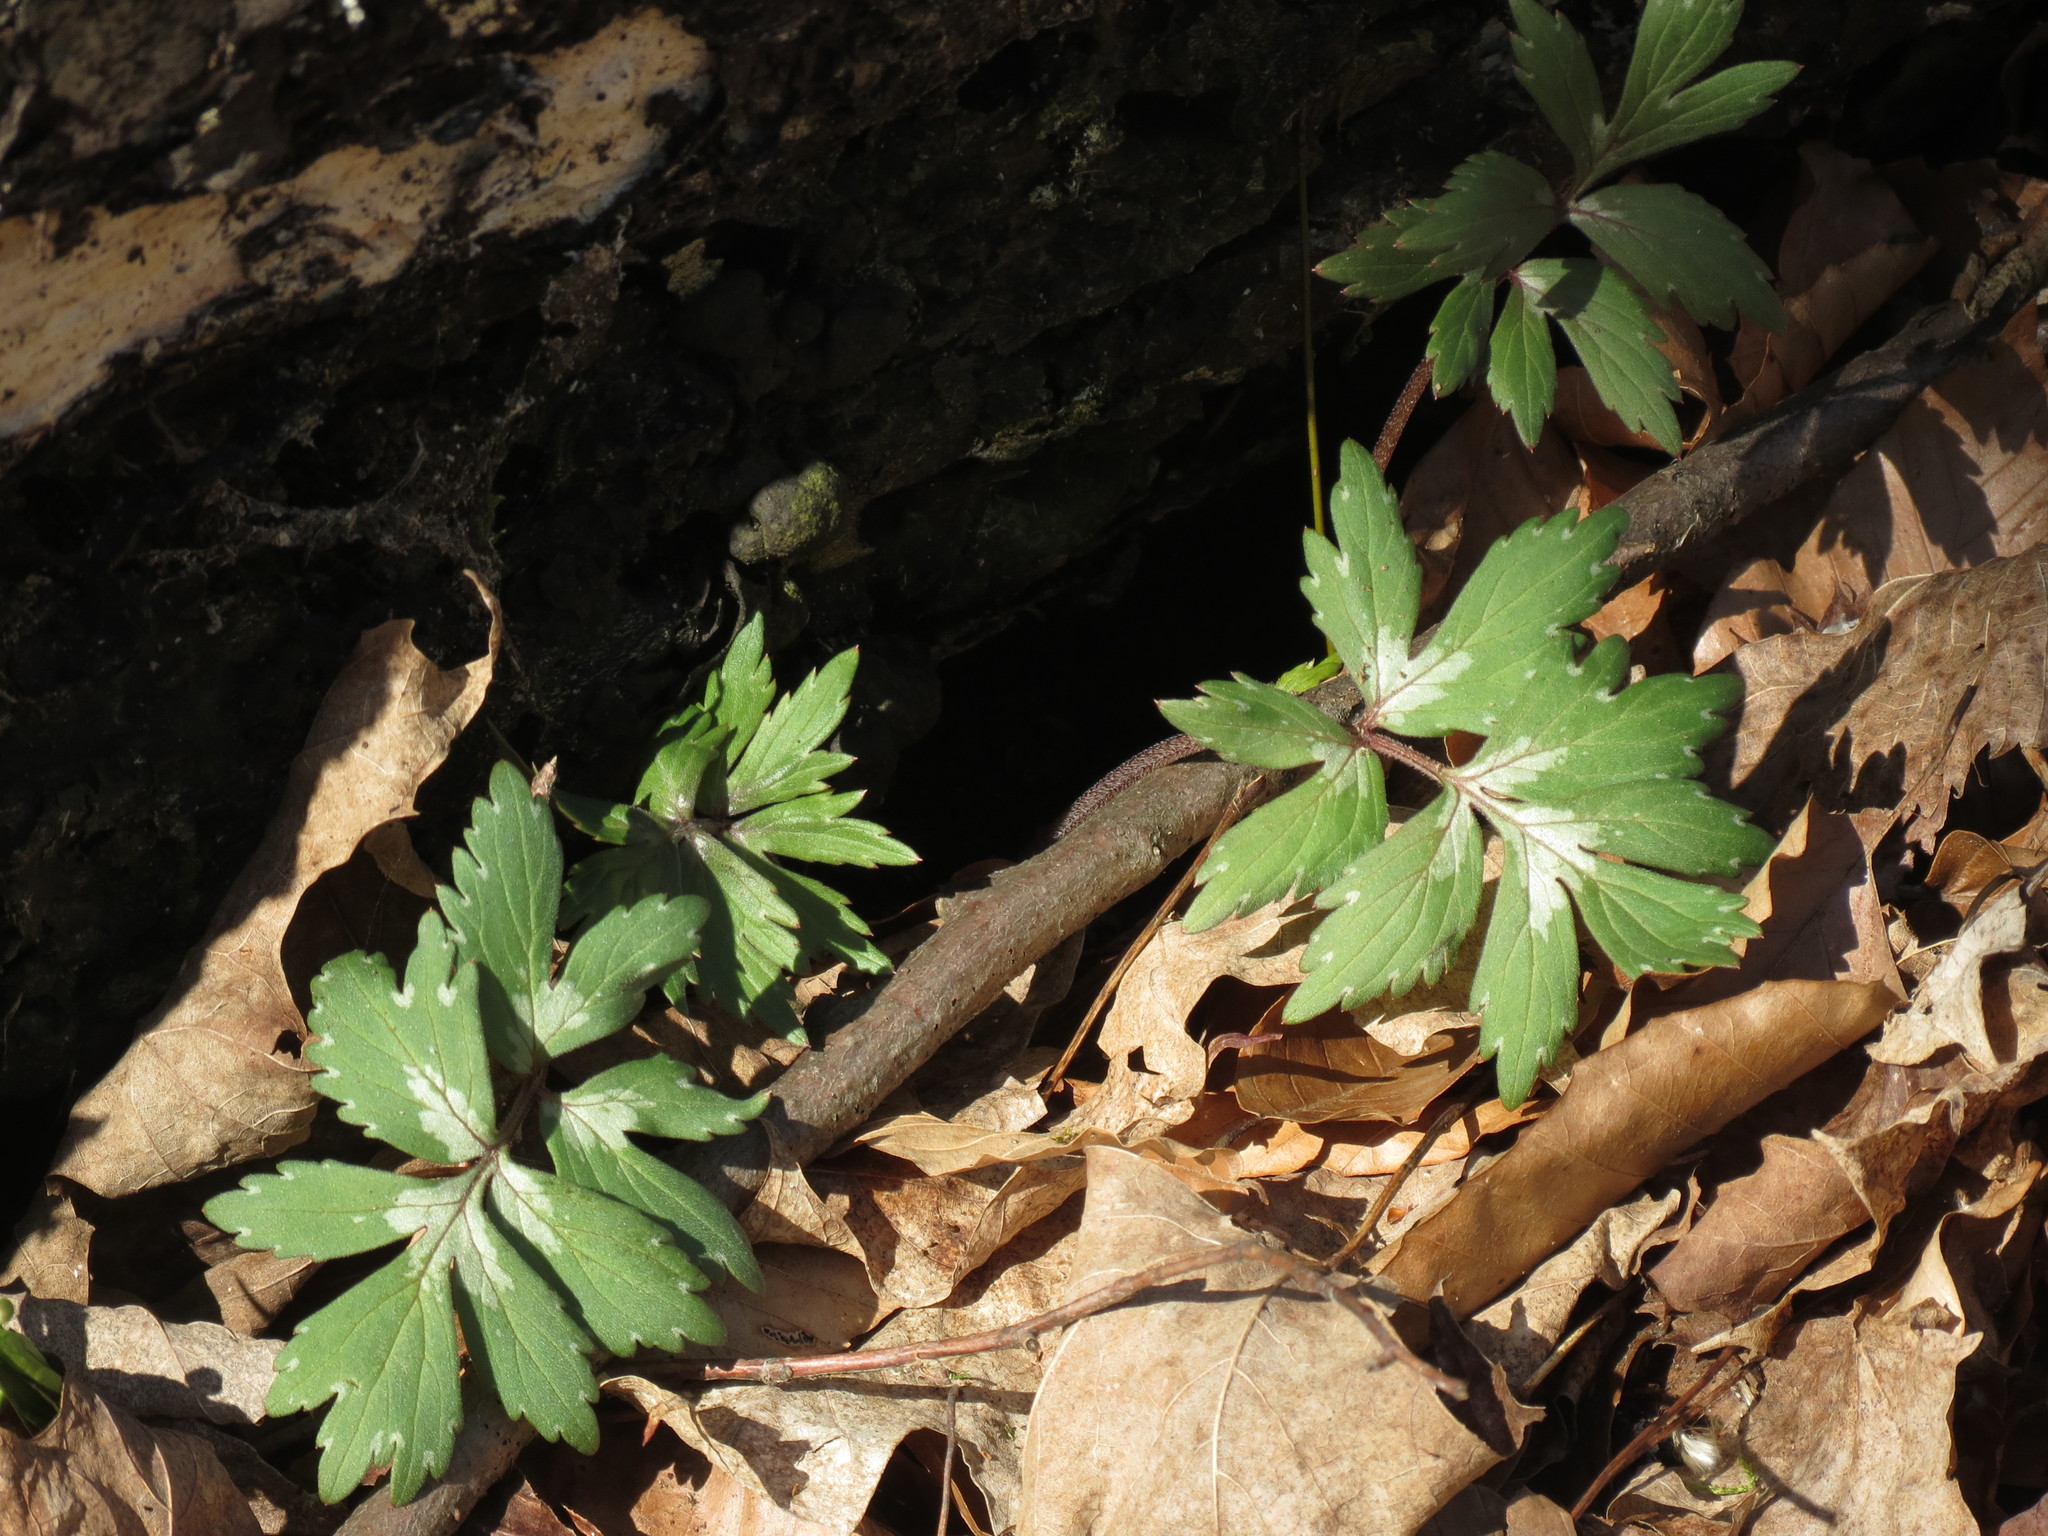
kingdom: Plantae
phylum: Tracheophyta
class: Magnoliopsida
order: Boraginales
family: Hydrophyllaceae
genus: Hydrophyllum
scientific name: Hydrophyllum virginianum
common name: Virginia waterleaf
